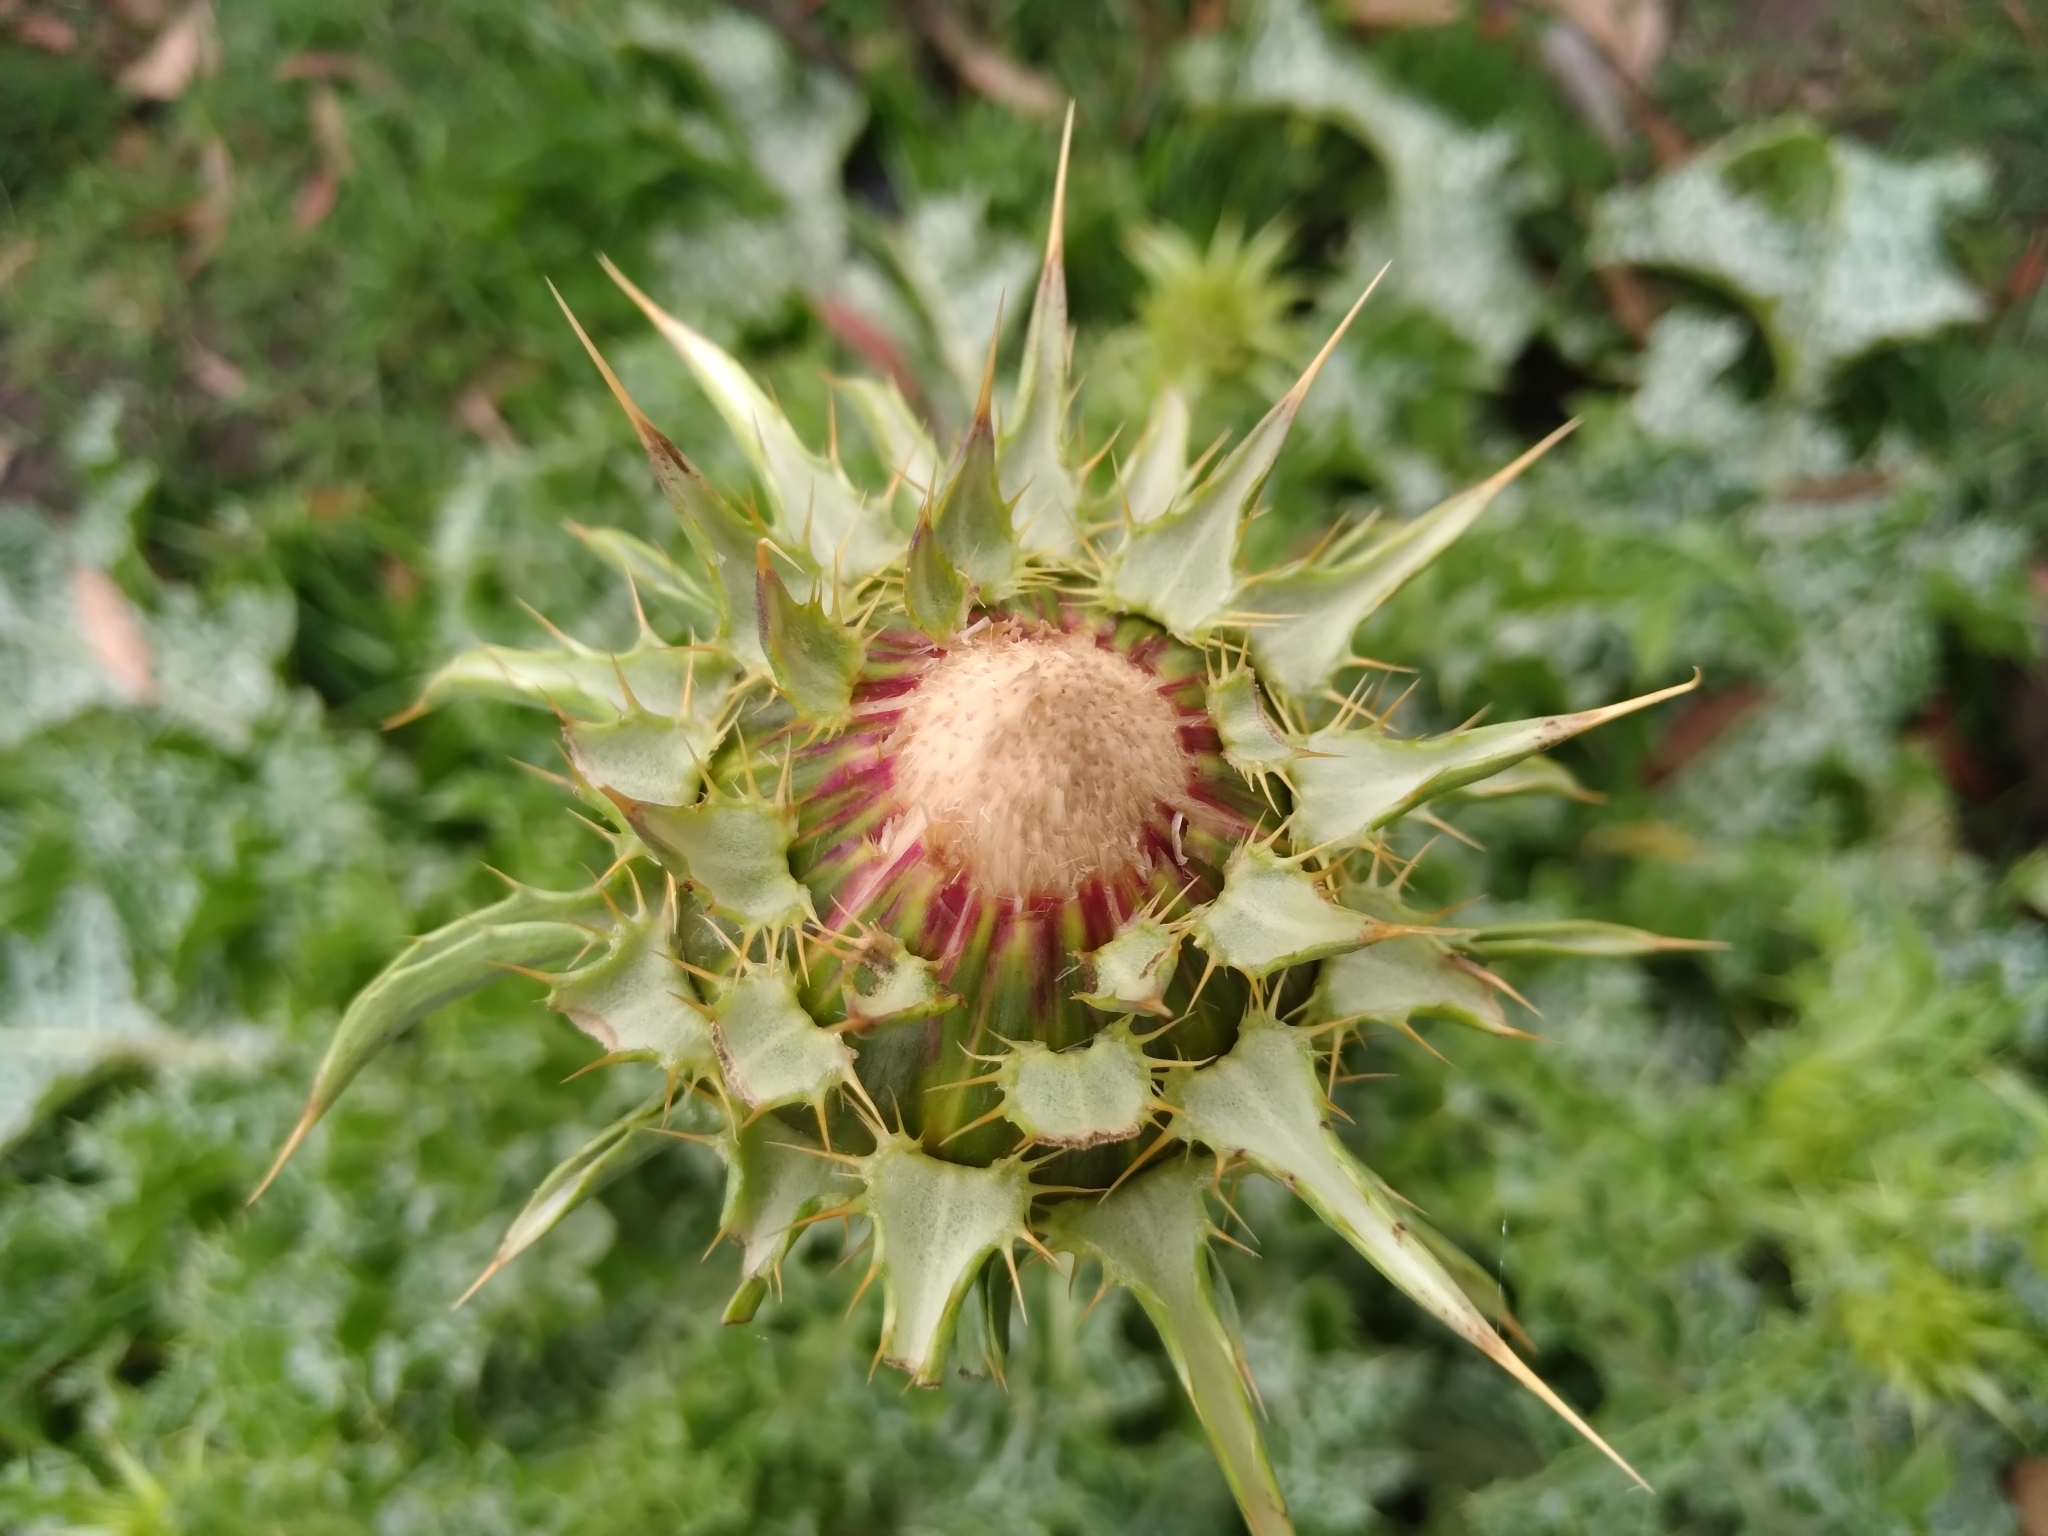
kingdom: Plantae
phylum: Tracheophyta
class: Magnoliopsida
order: Asterales
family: Asteraceae
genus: Silybum
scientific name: Silybum marianum
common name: Milk thistle
